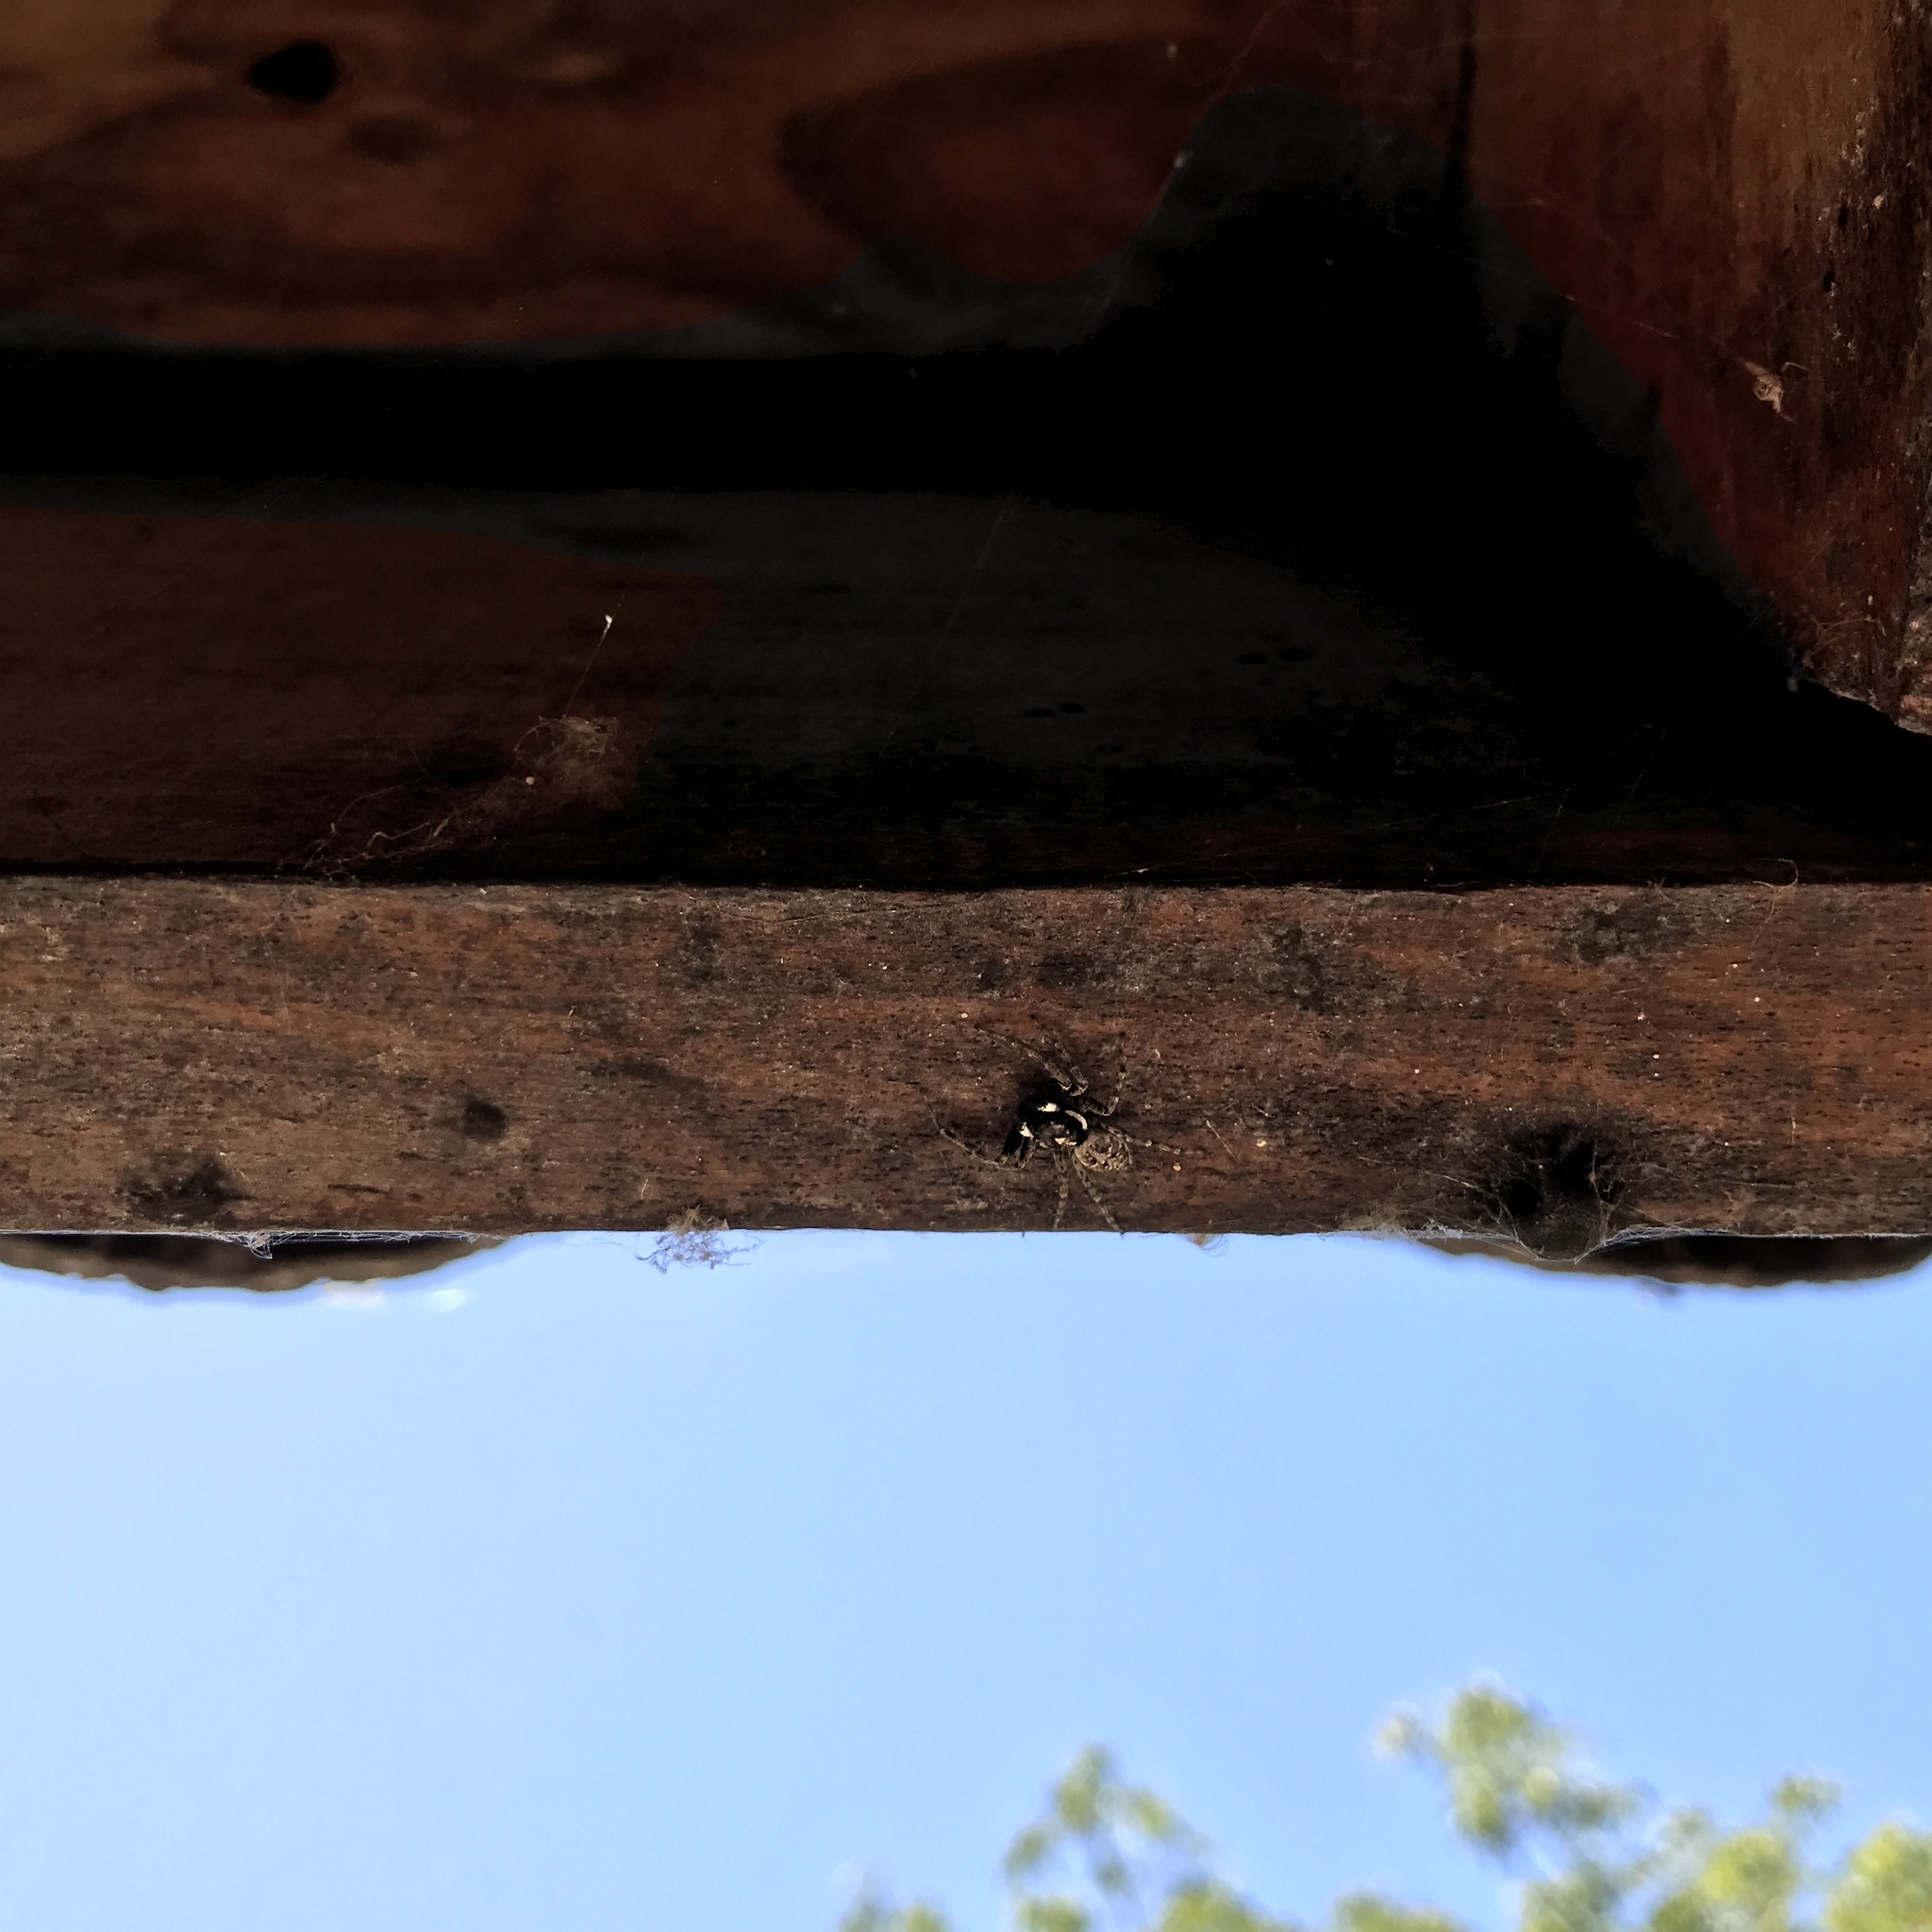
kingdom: Animalia
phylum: Arthropoda
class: Arachnida
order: Araneae
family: Salticidae
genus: Menemerus
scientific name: Menemerus semilimbatus
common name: Jumping spider
